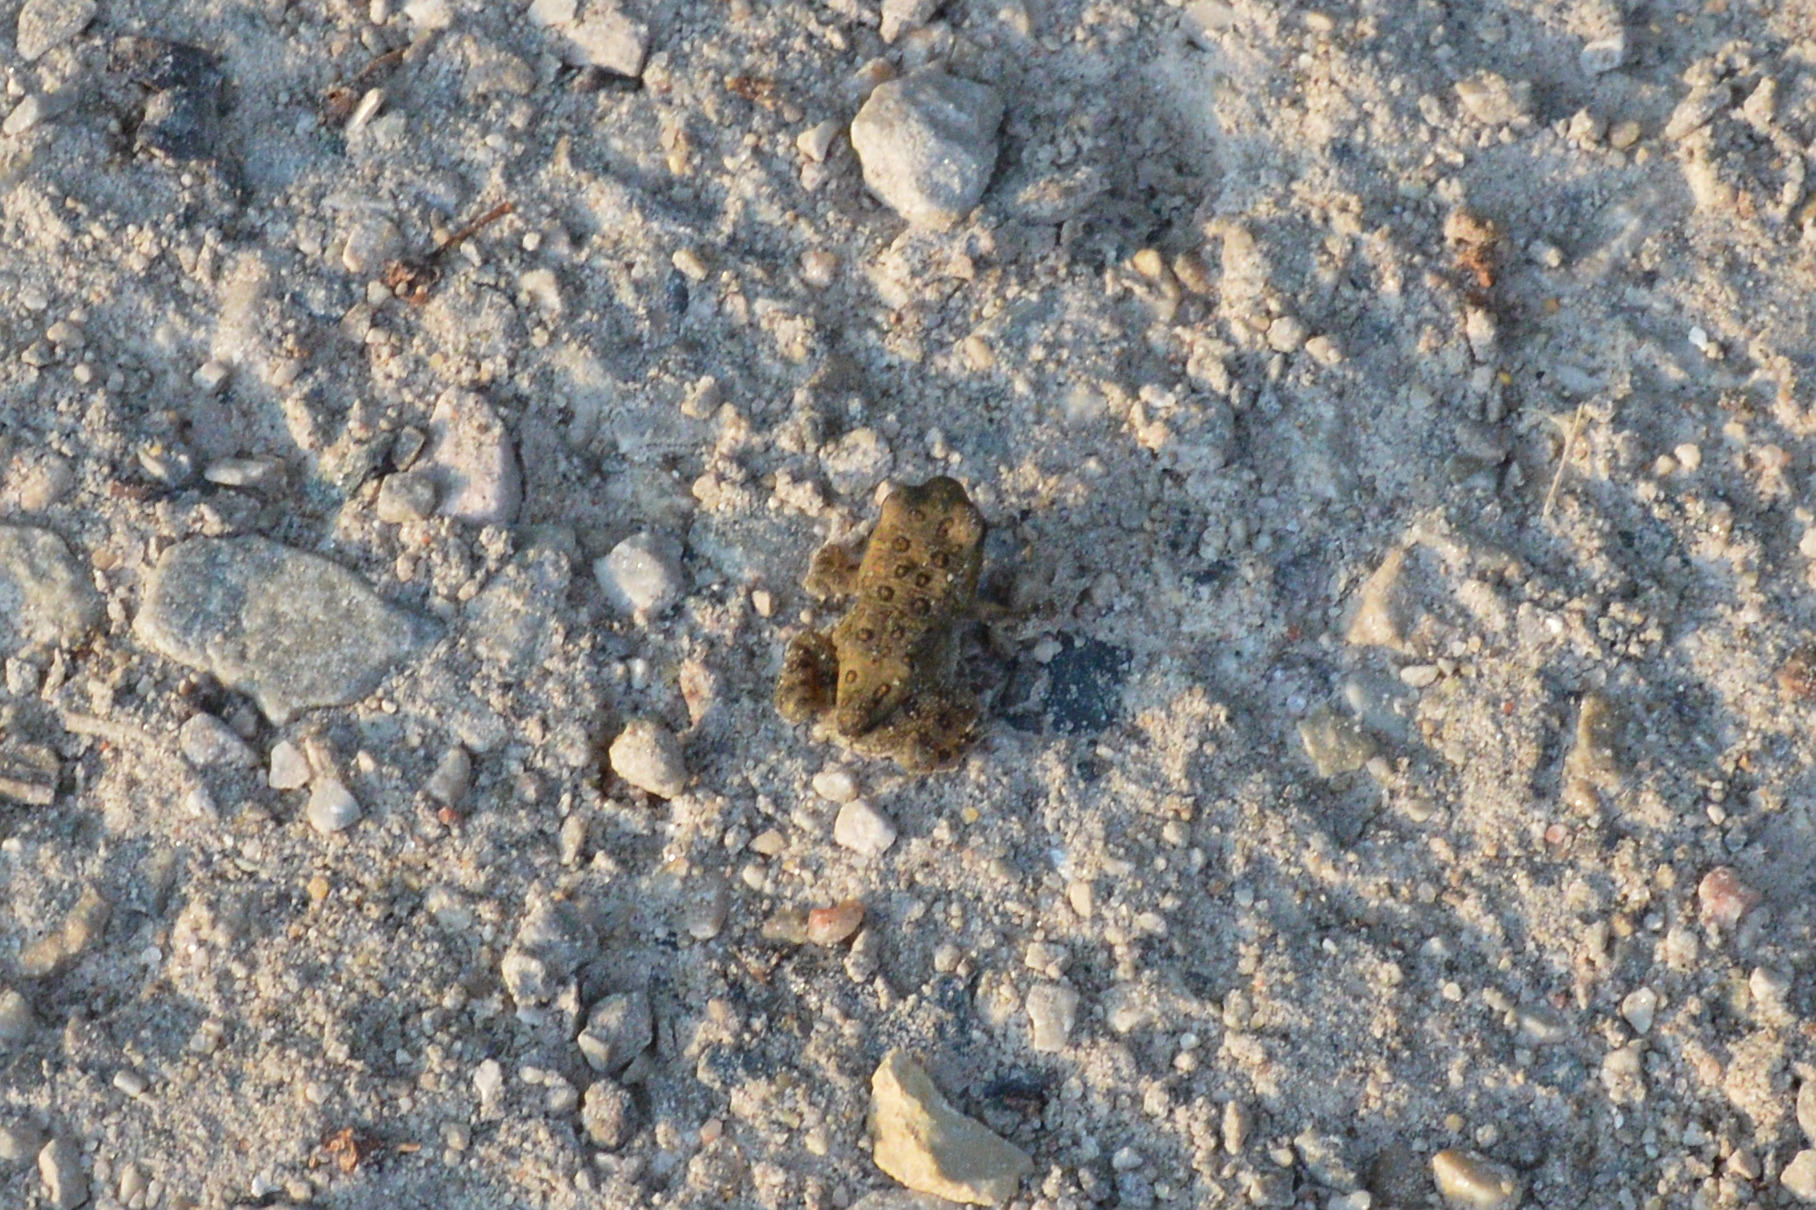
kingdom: Animalia
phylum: Chordata
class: Amphibia
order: Anura
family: Bufonidae
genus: Anaxyrus
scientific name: Anaxyrus americanus
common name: American toad
